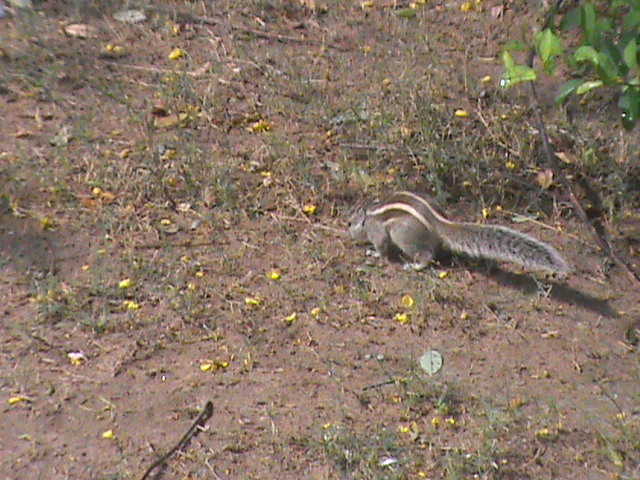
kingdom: Animalia
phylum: Chordata
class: Mammalia
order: Rodentia
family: Sciuridae
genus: Funambulus
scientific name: Funambulus pennantii
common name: Northern palm squirrel
